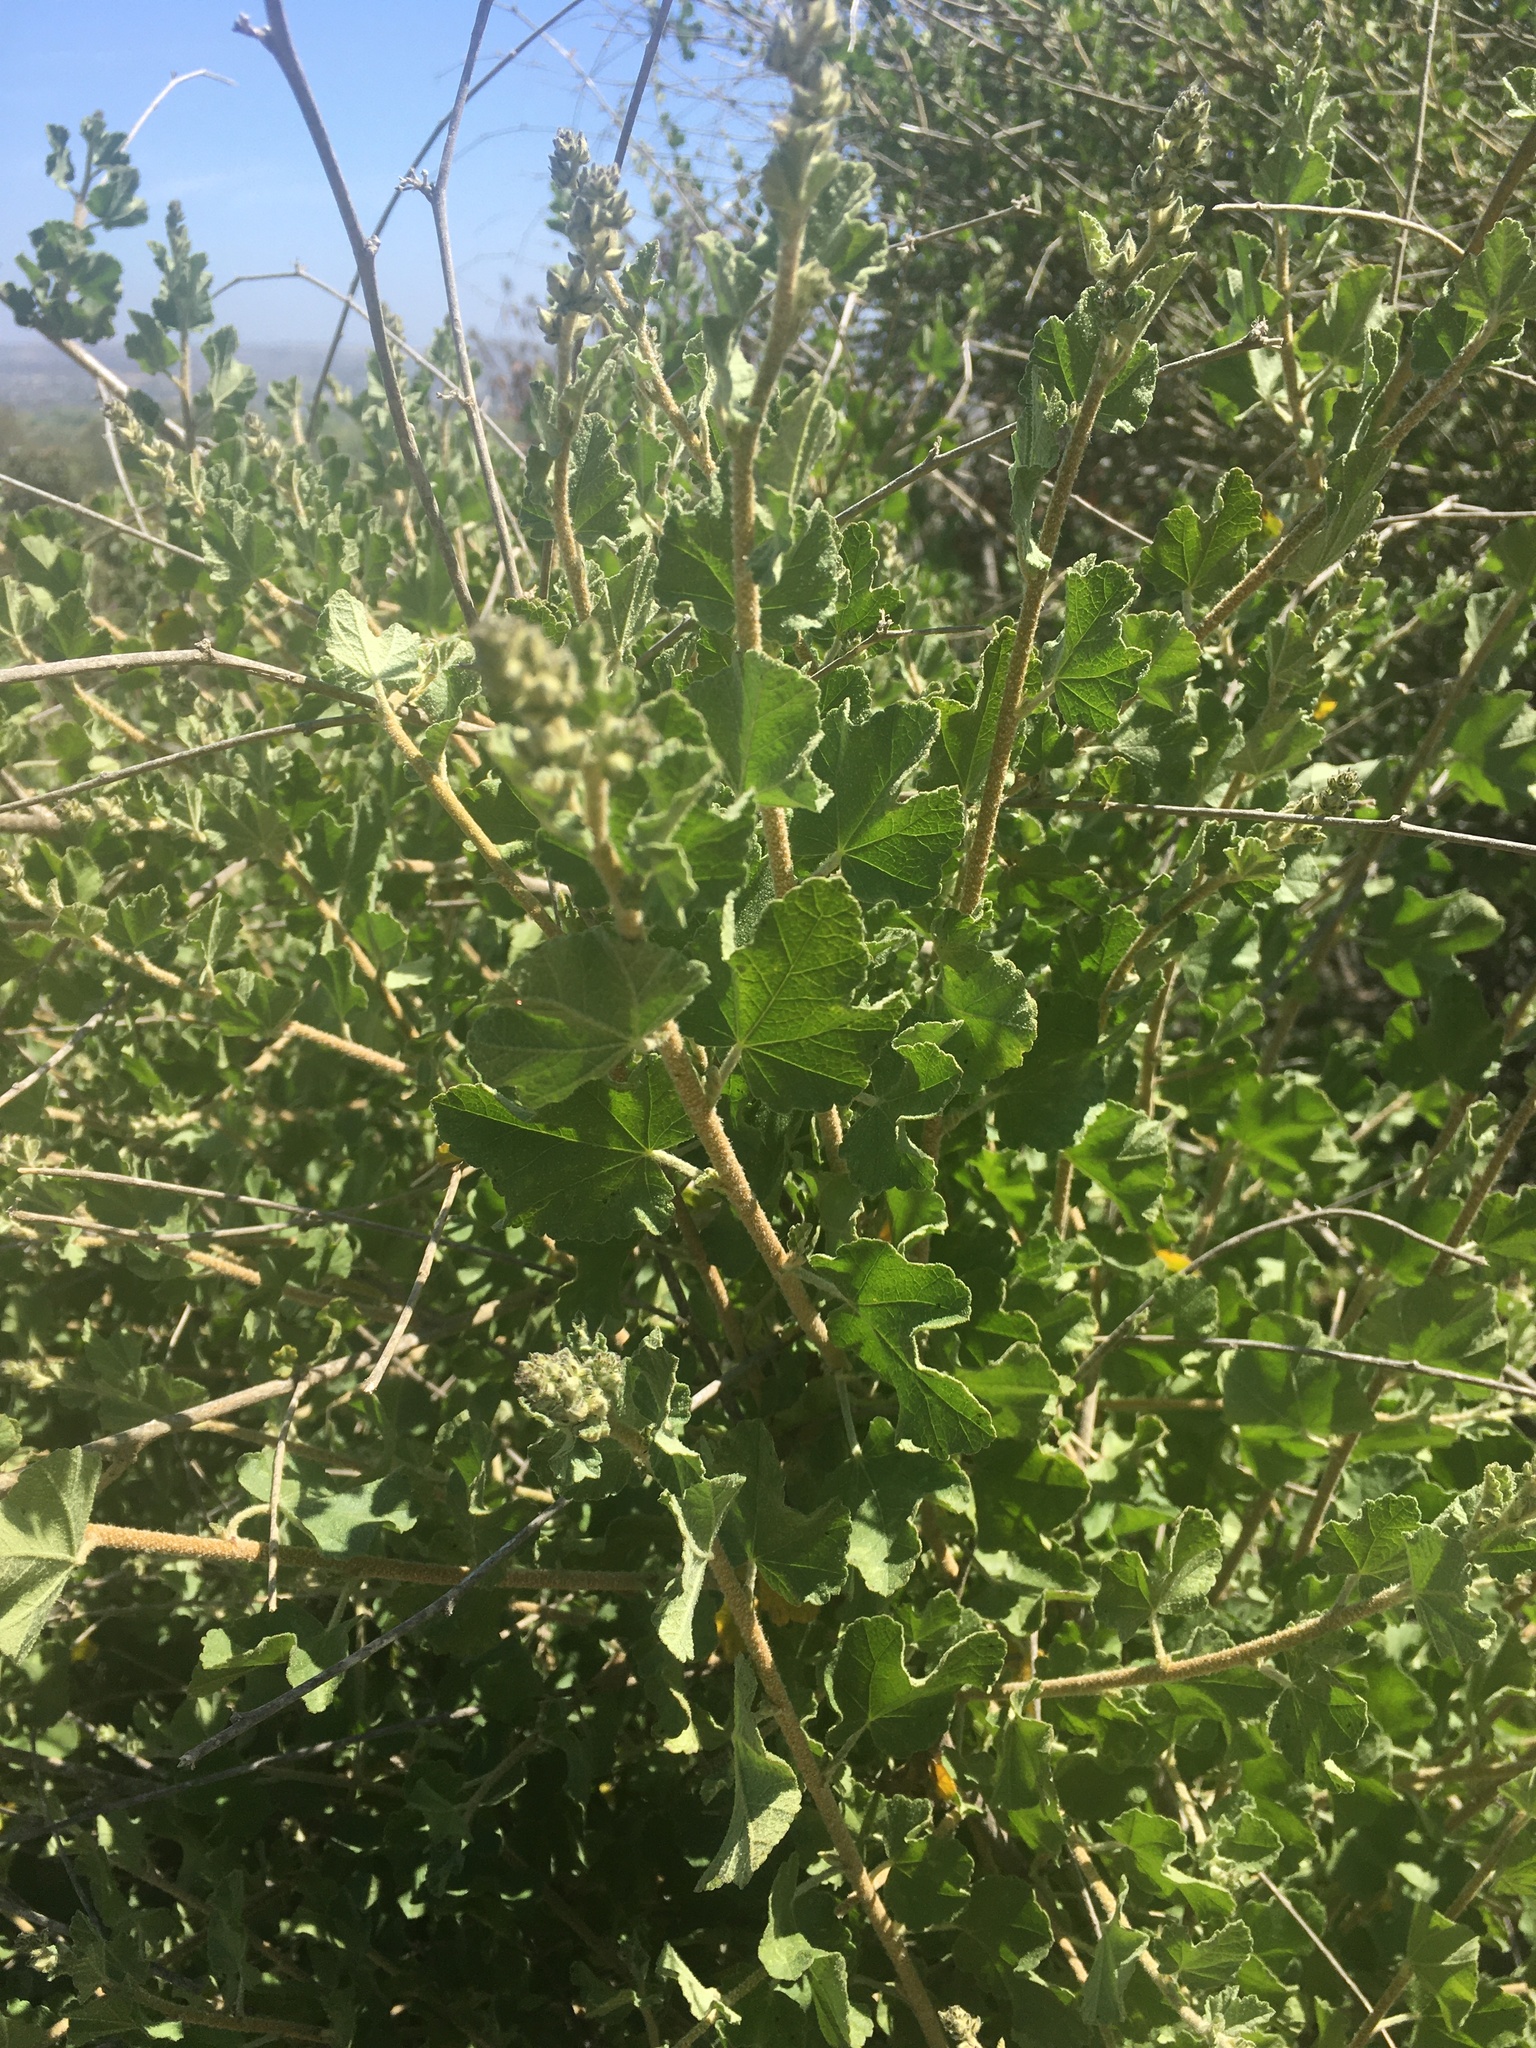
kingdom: Plantae
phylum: Tracheophyta
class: Magnoliopsida
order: Malvales
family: Malvaceae
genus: Malacothamnus
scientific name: Malacothamnus fasciculatus
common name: Sant cruz island bush-mallow
